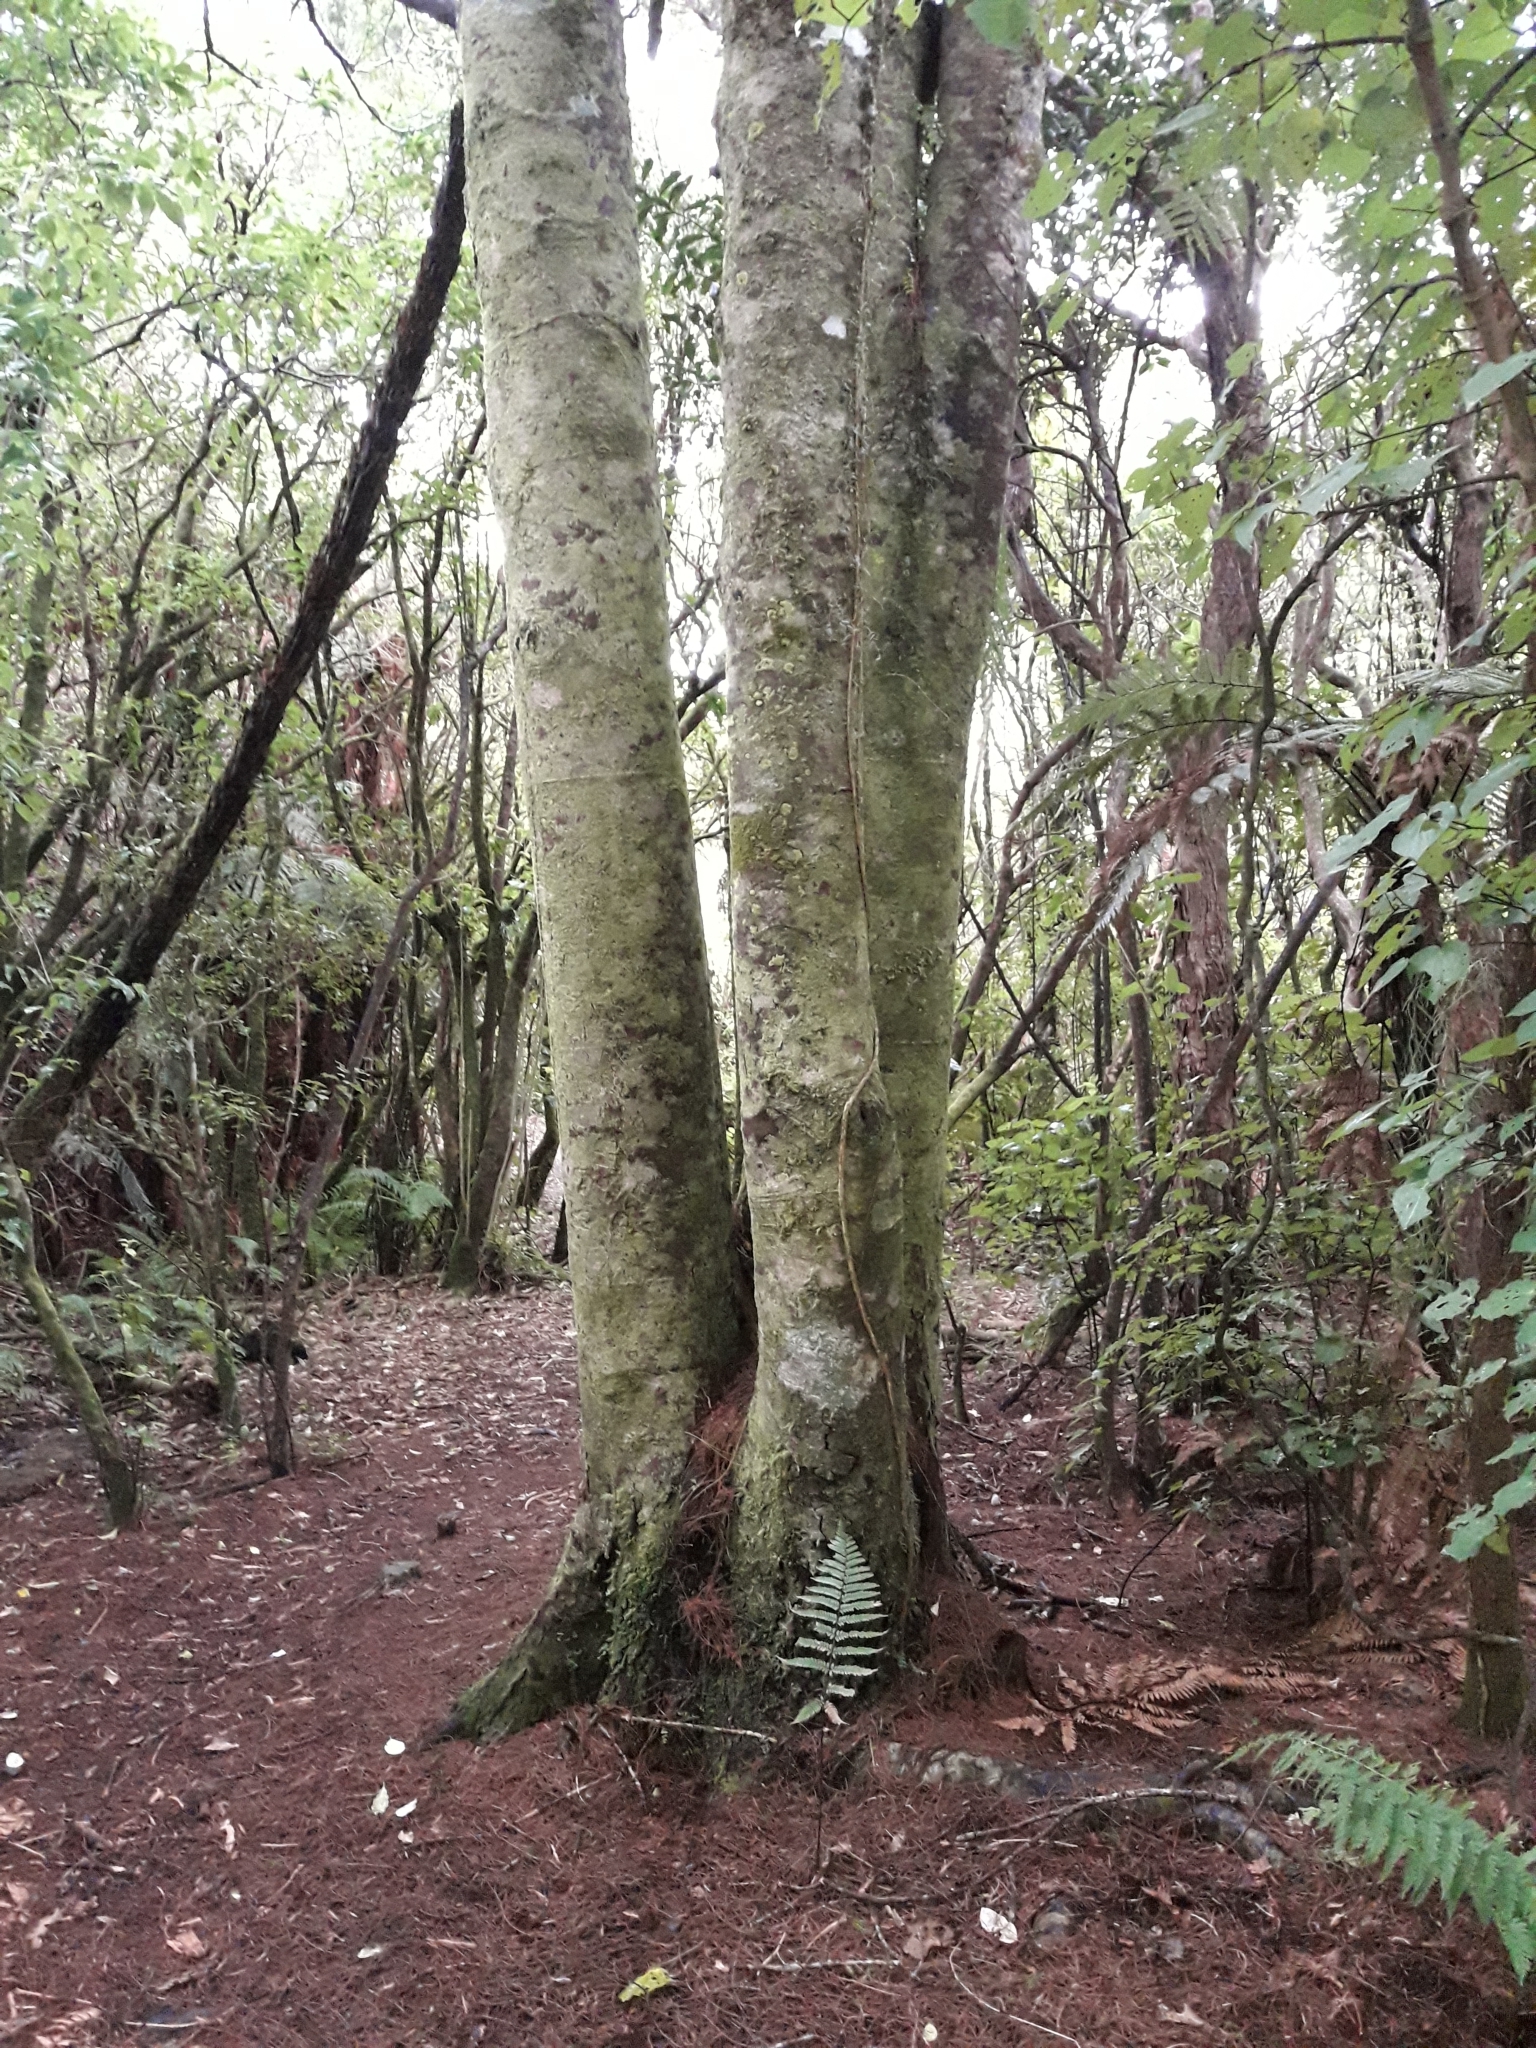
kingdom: Plantae
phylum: Tracheophyta
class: Pinopsida
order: Pinales
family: Podocarpaceae
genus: Dacrycarpus
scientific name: Dacrycarpus dacrydioides
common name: White pine
